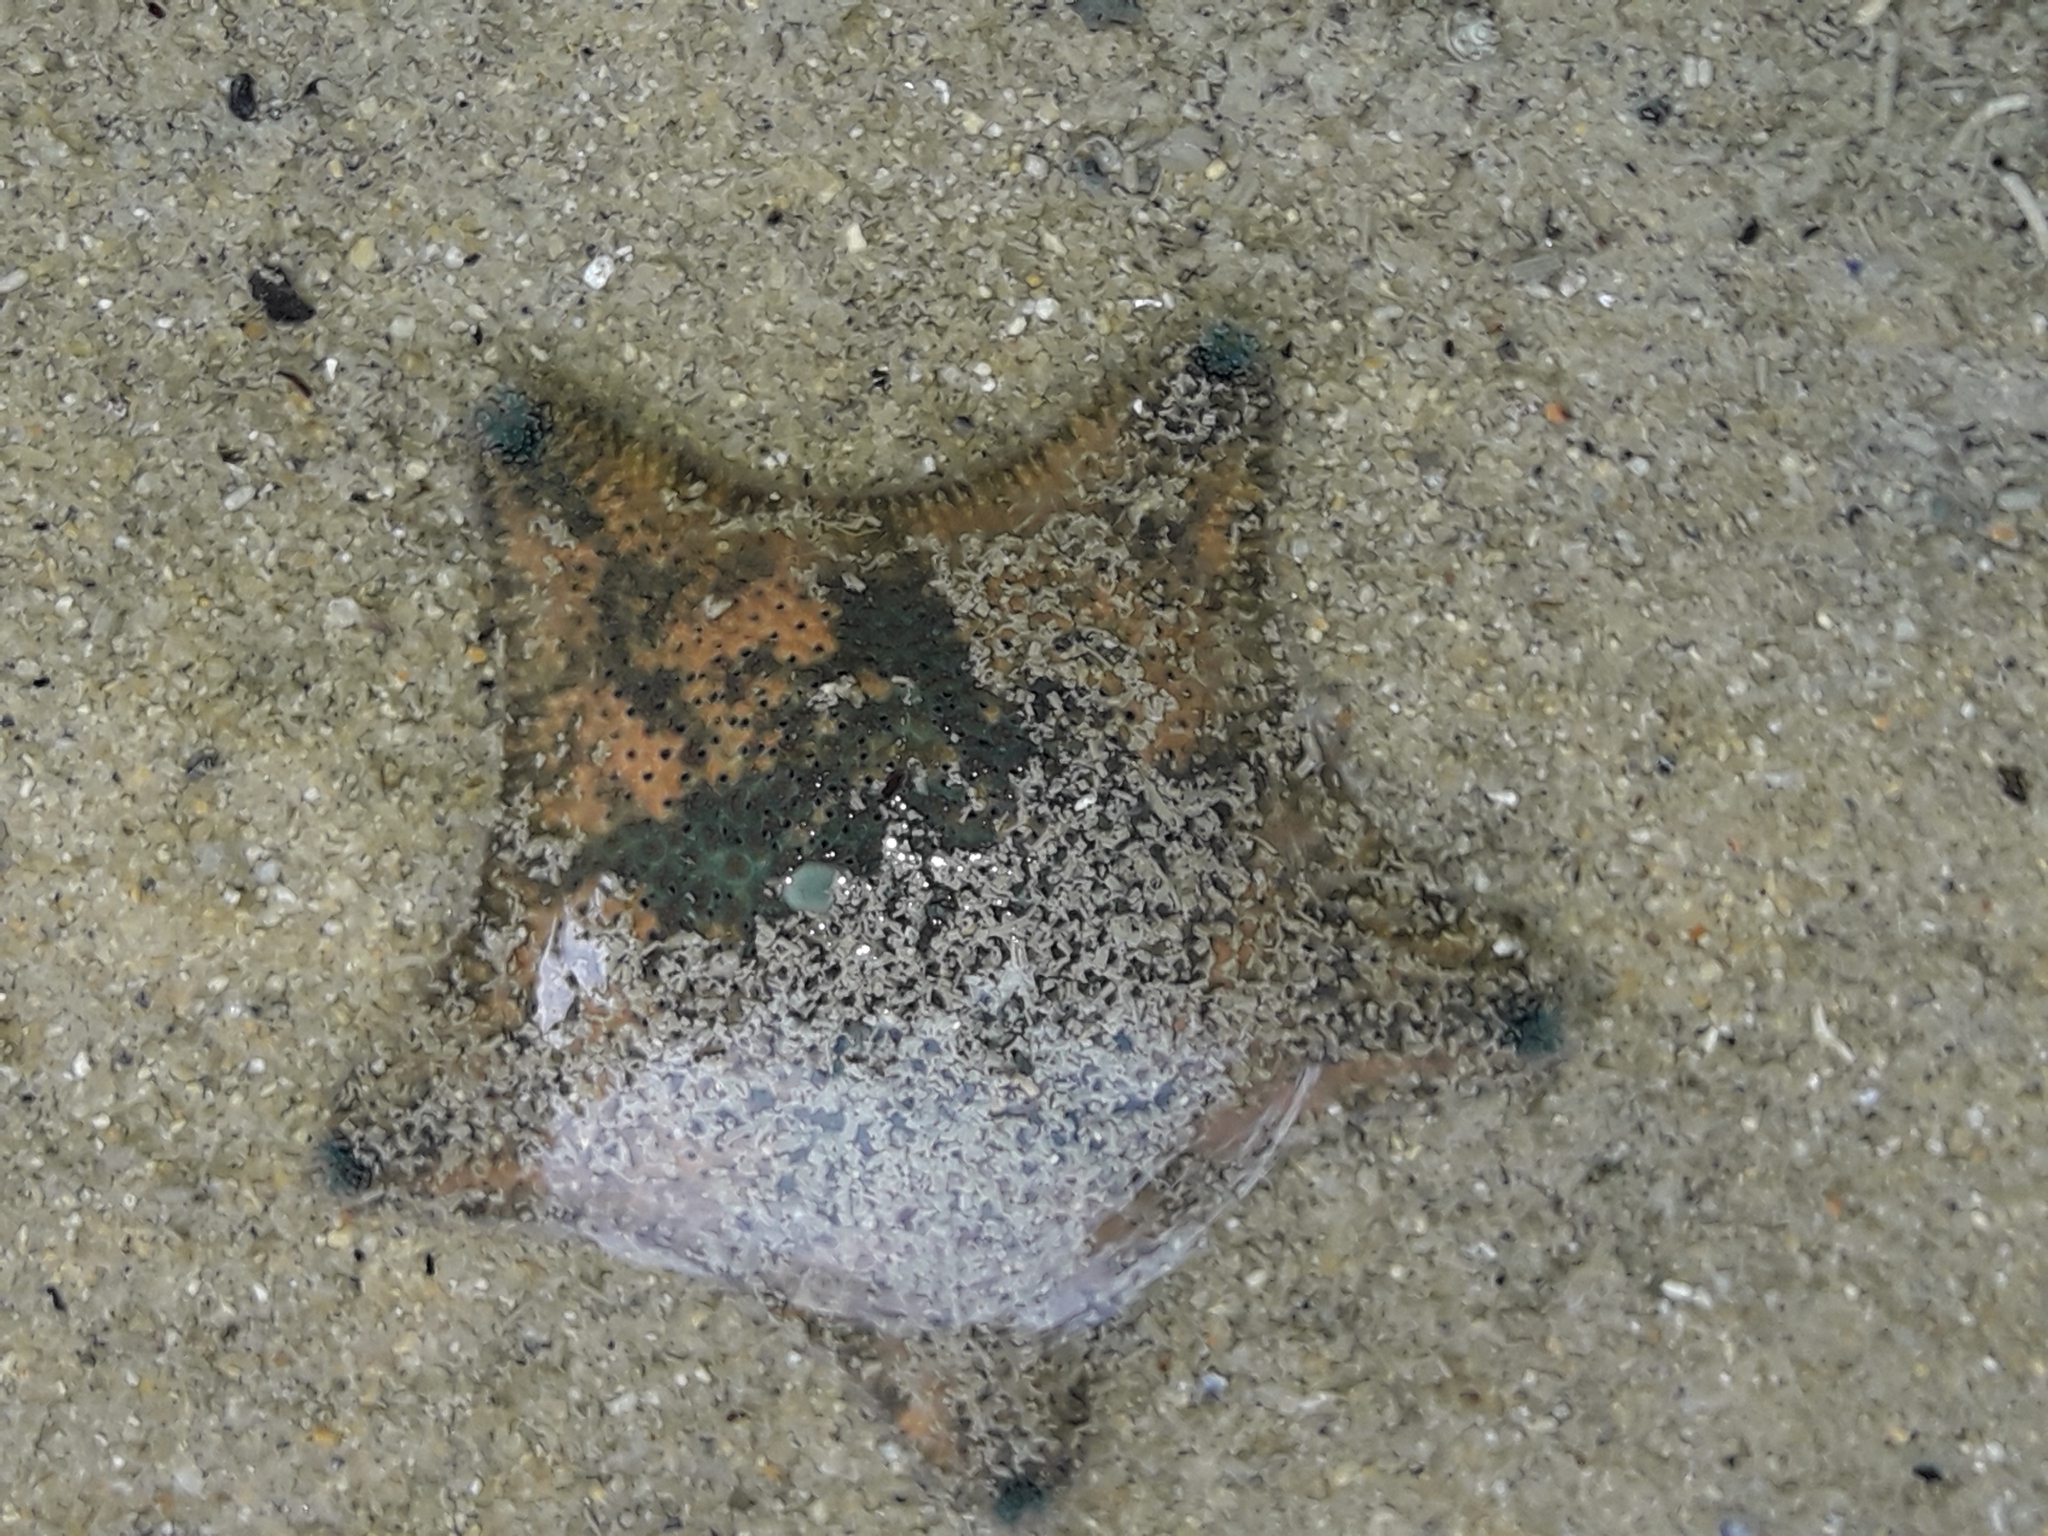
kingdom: Animalia
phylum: Echinodermata
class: Asteroidea
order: Valvatida
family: Asterinidae
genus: Patiriella
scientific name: Patiriella regularis
